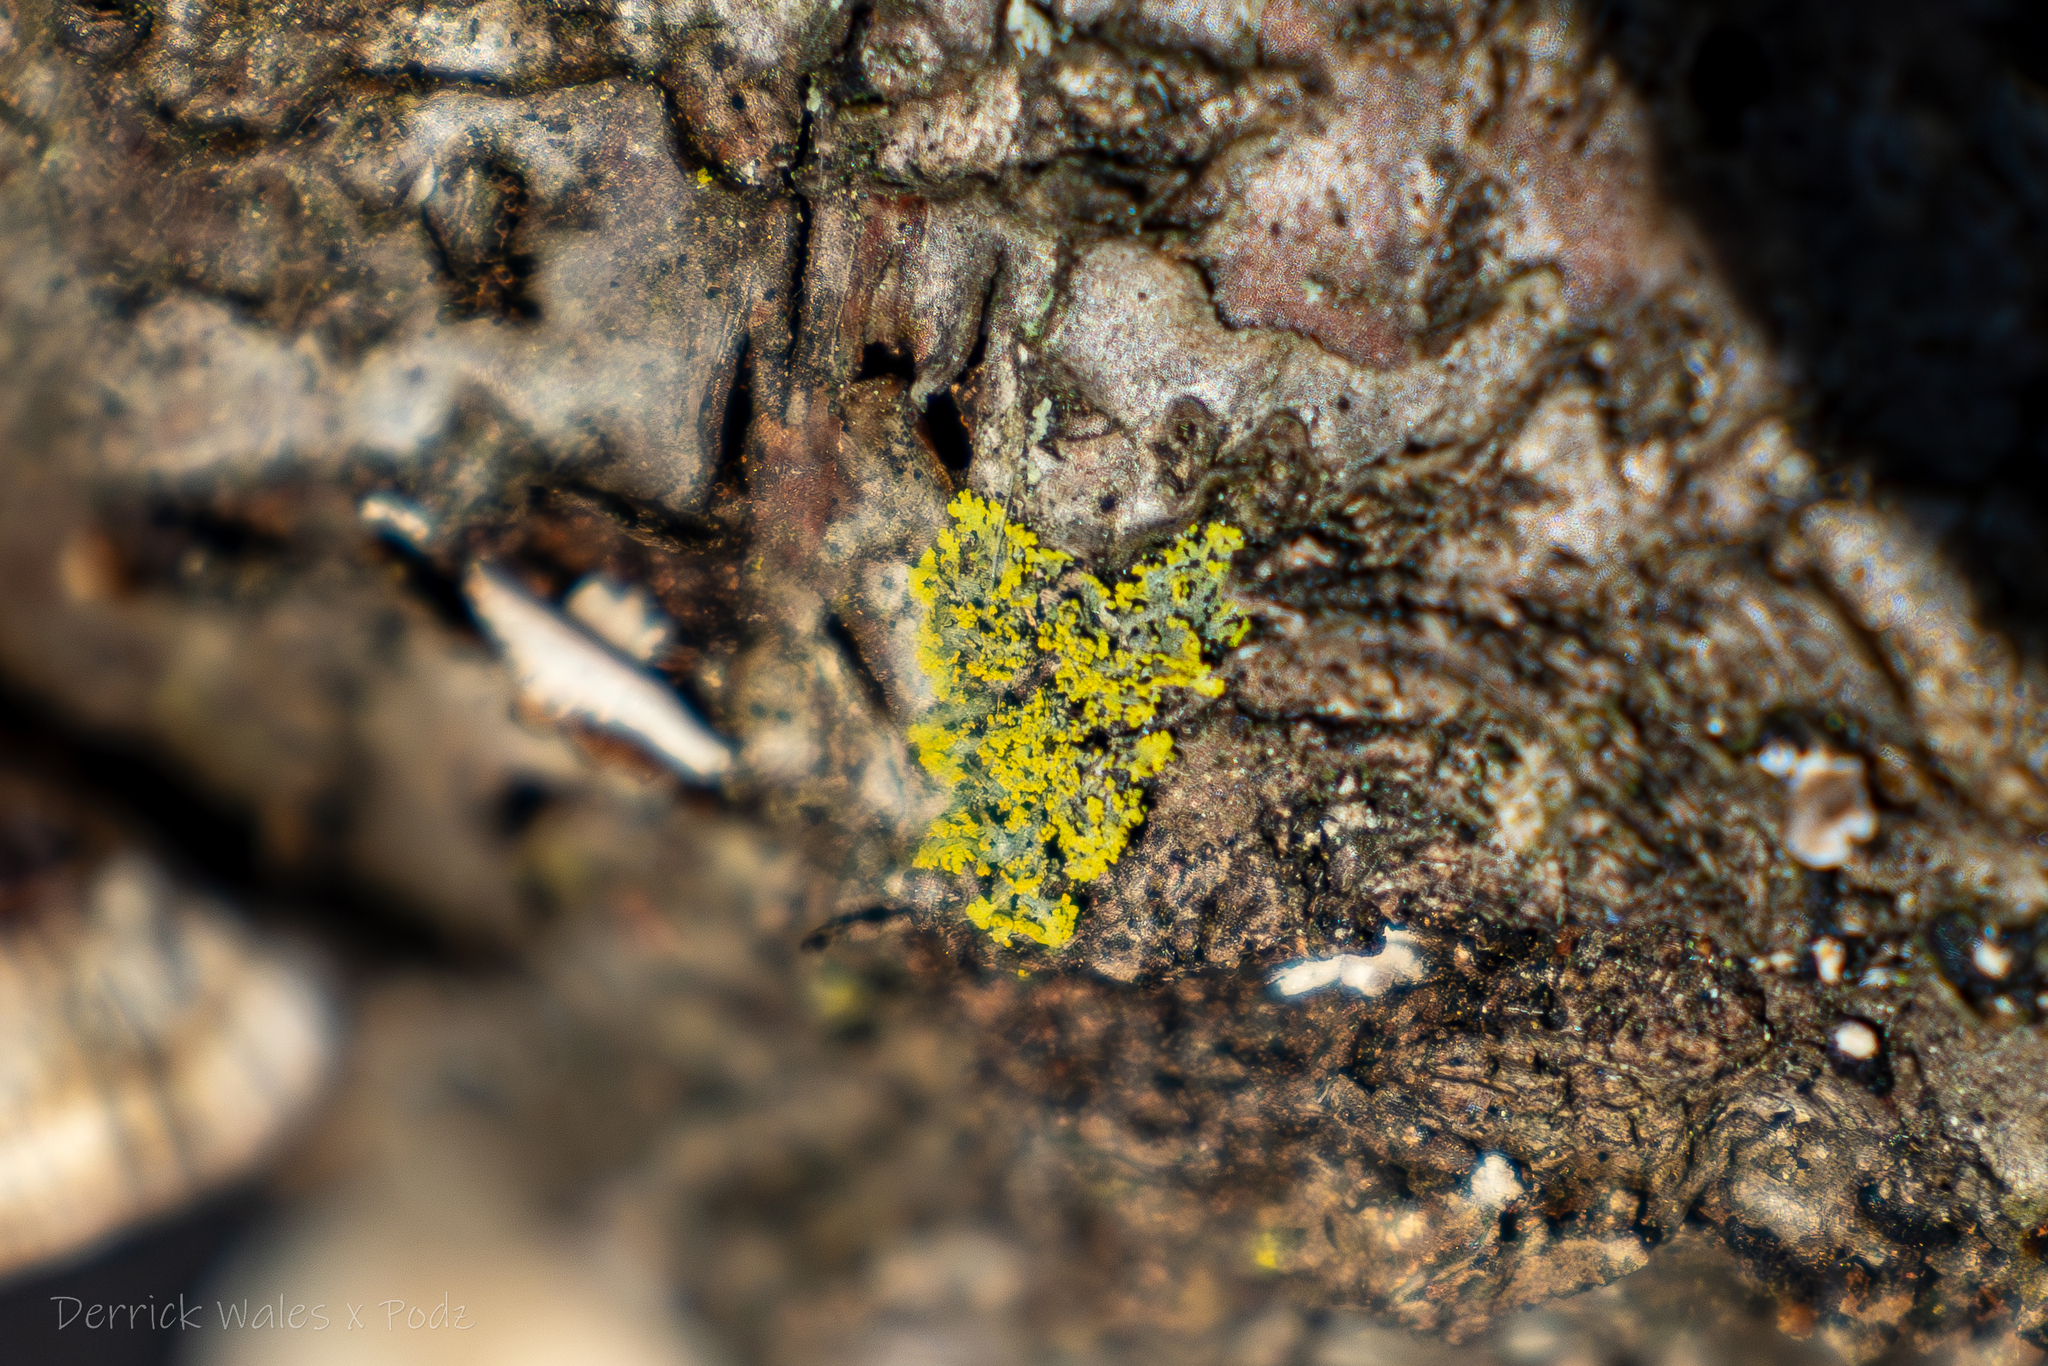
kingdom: Fungi
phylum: Ascomycota
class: Candelariomycetes
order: Candelariales
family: Candelariaceae
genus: Candelaria
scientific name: Candelaria concolor
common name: Candleflame lichen
